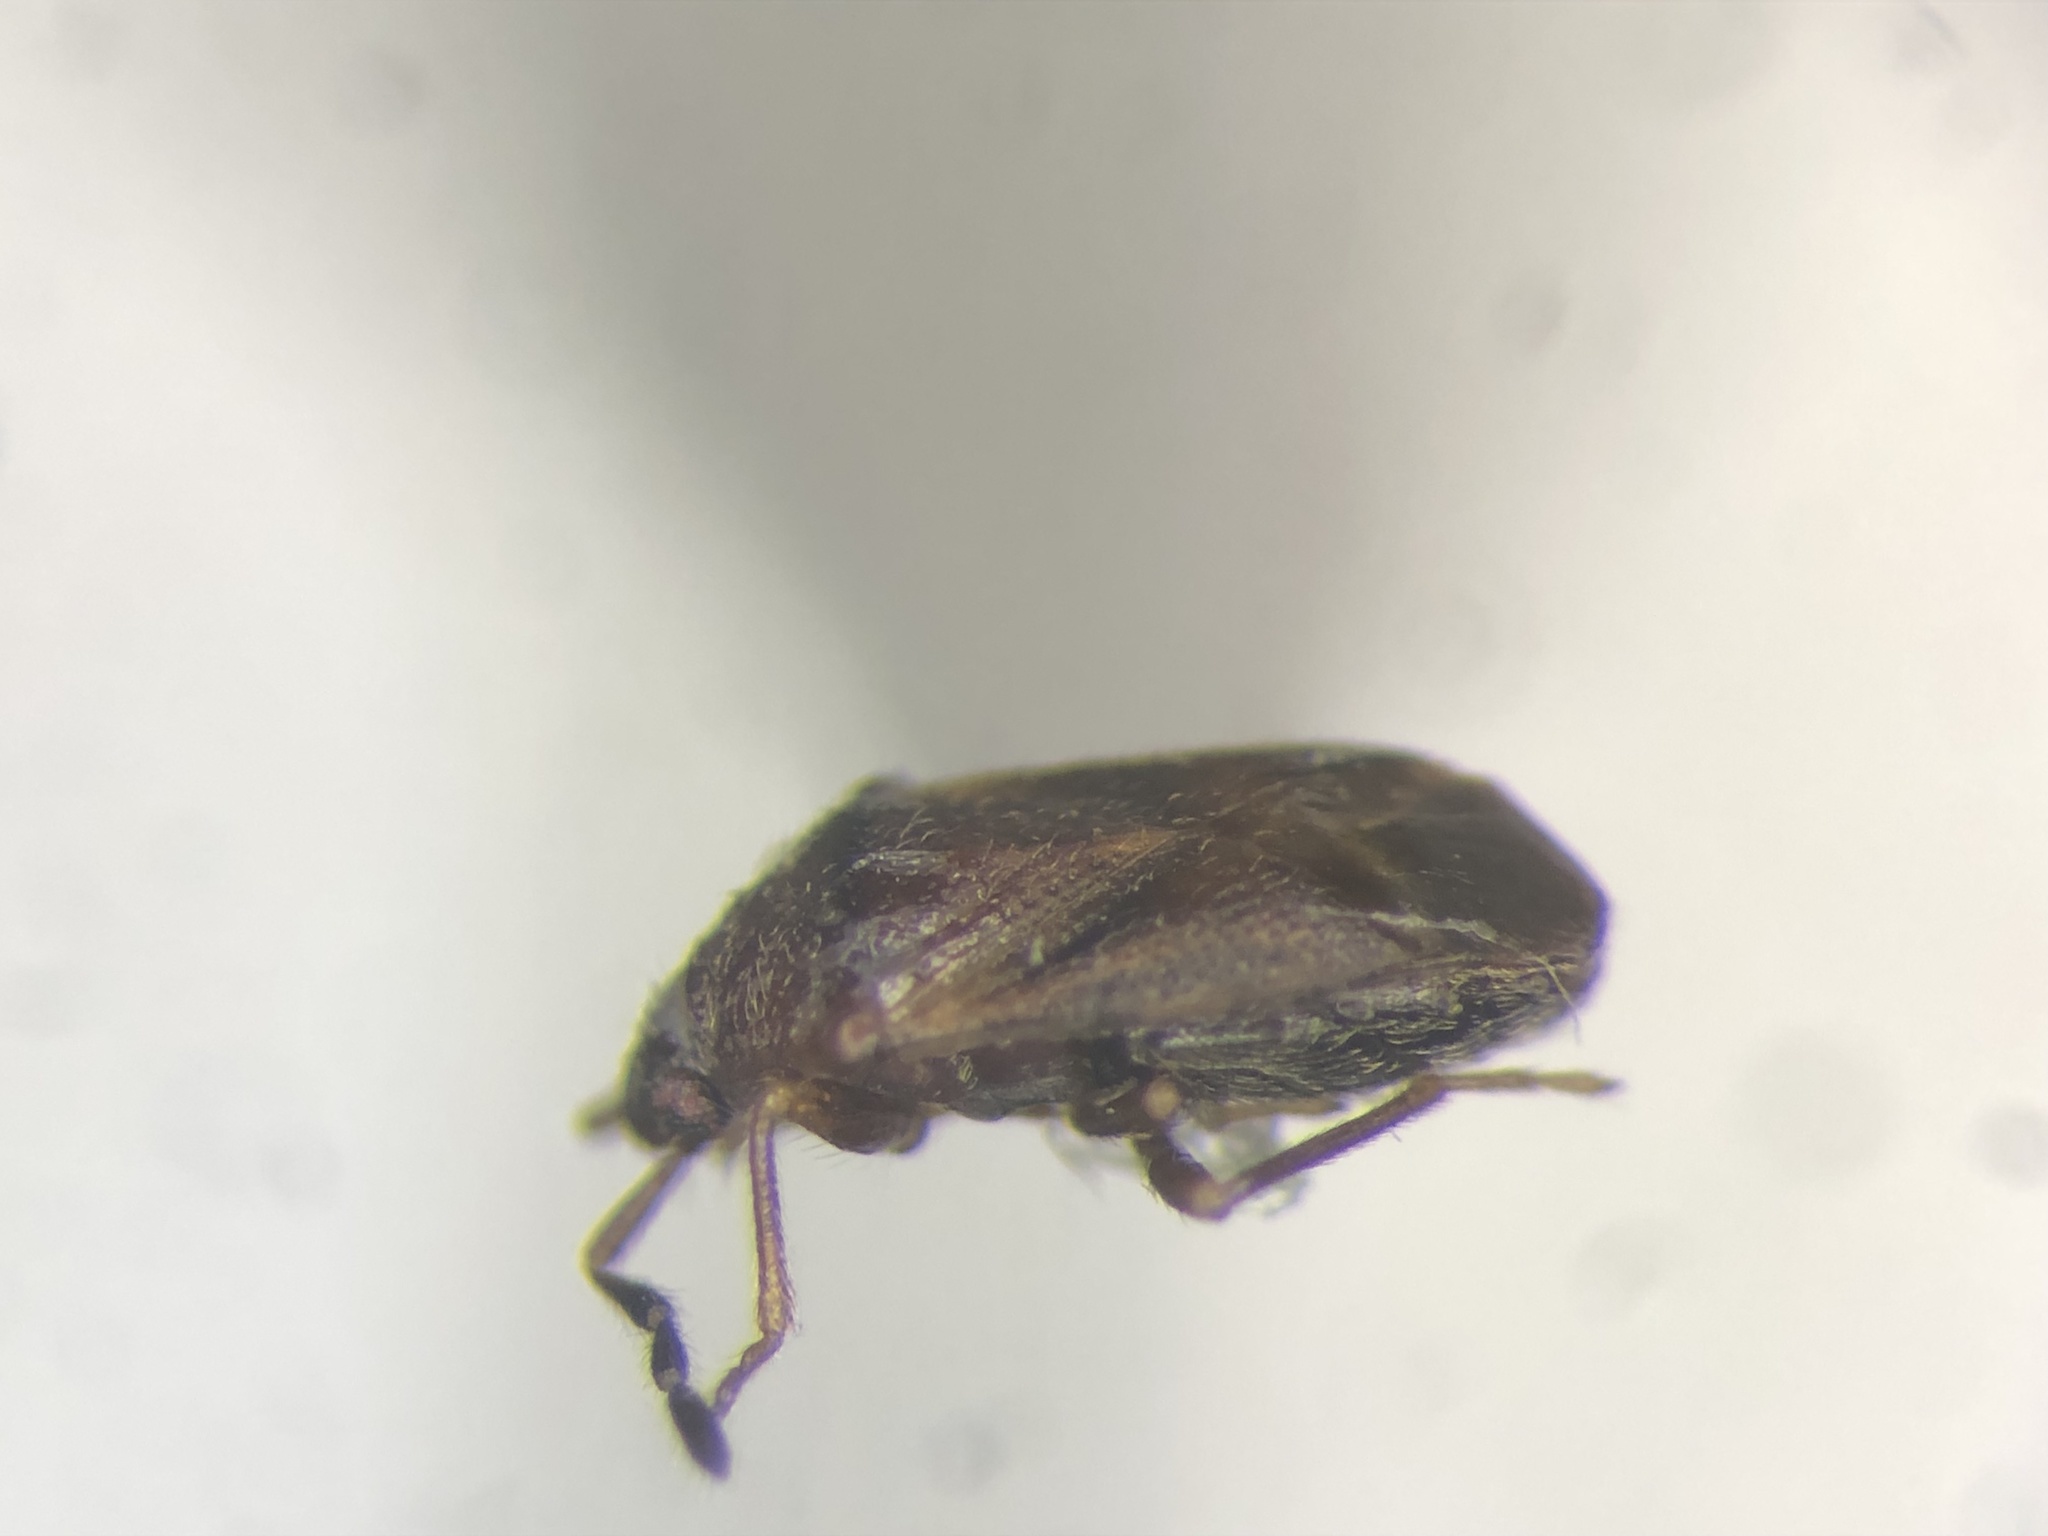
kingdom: Animalia
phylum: Arthropoda
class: Insecta
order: Hemiptera
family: Rhyparochromidae
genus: Antillocoris
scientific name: Antillocoris minutus
